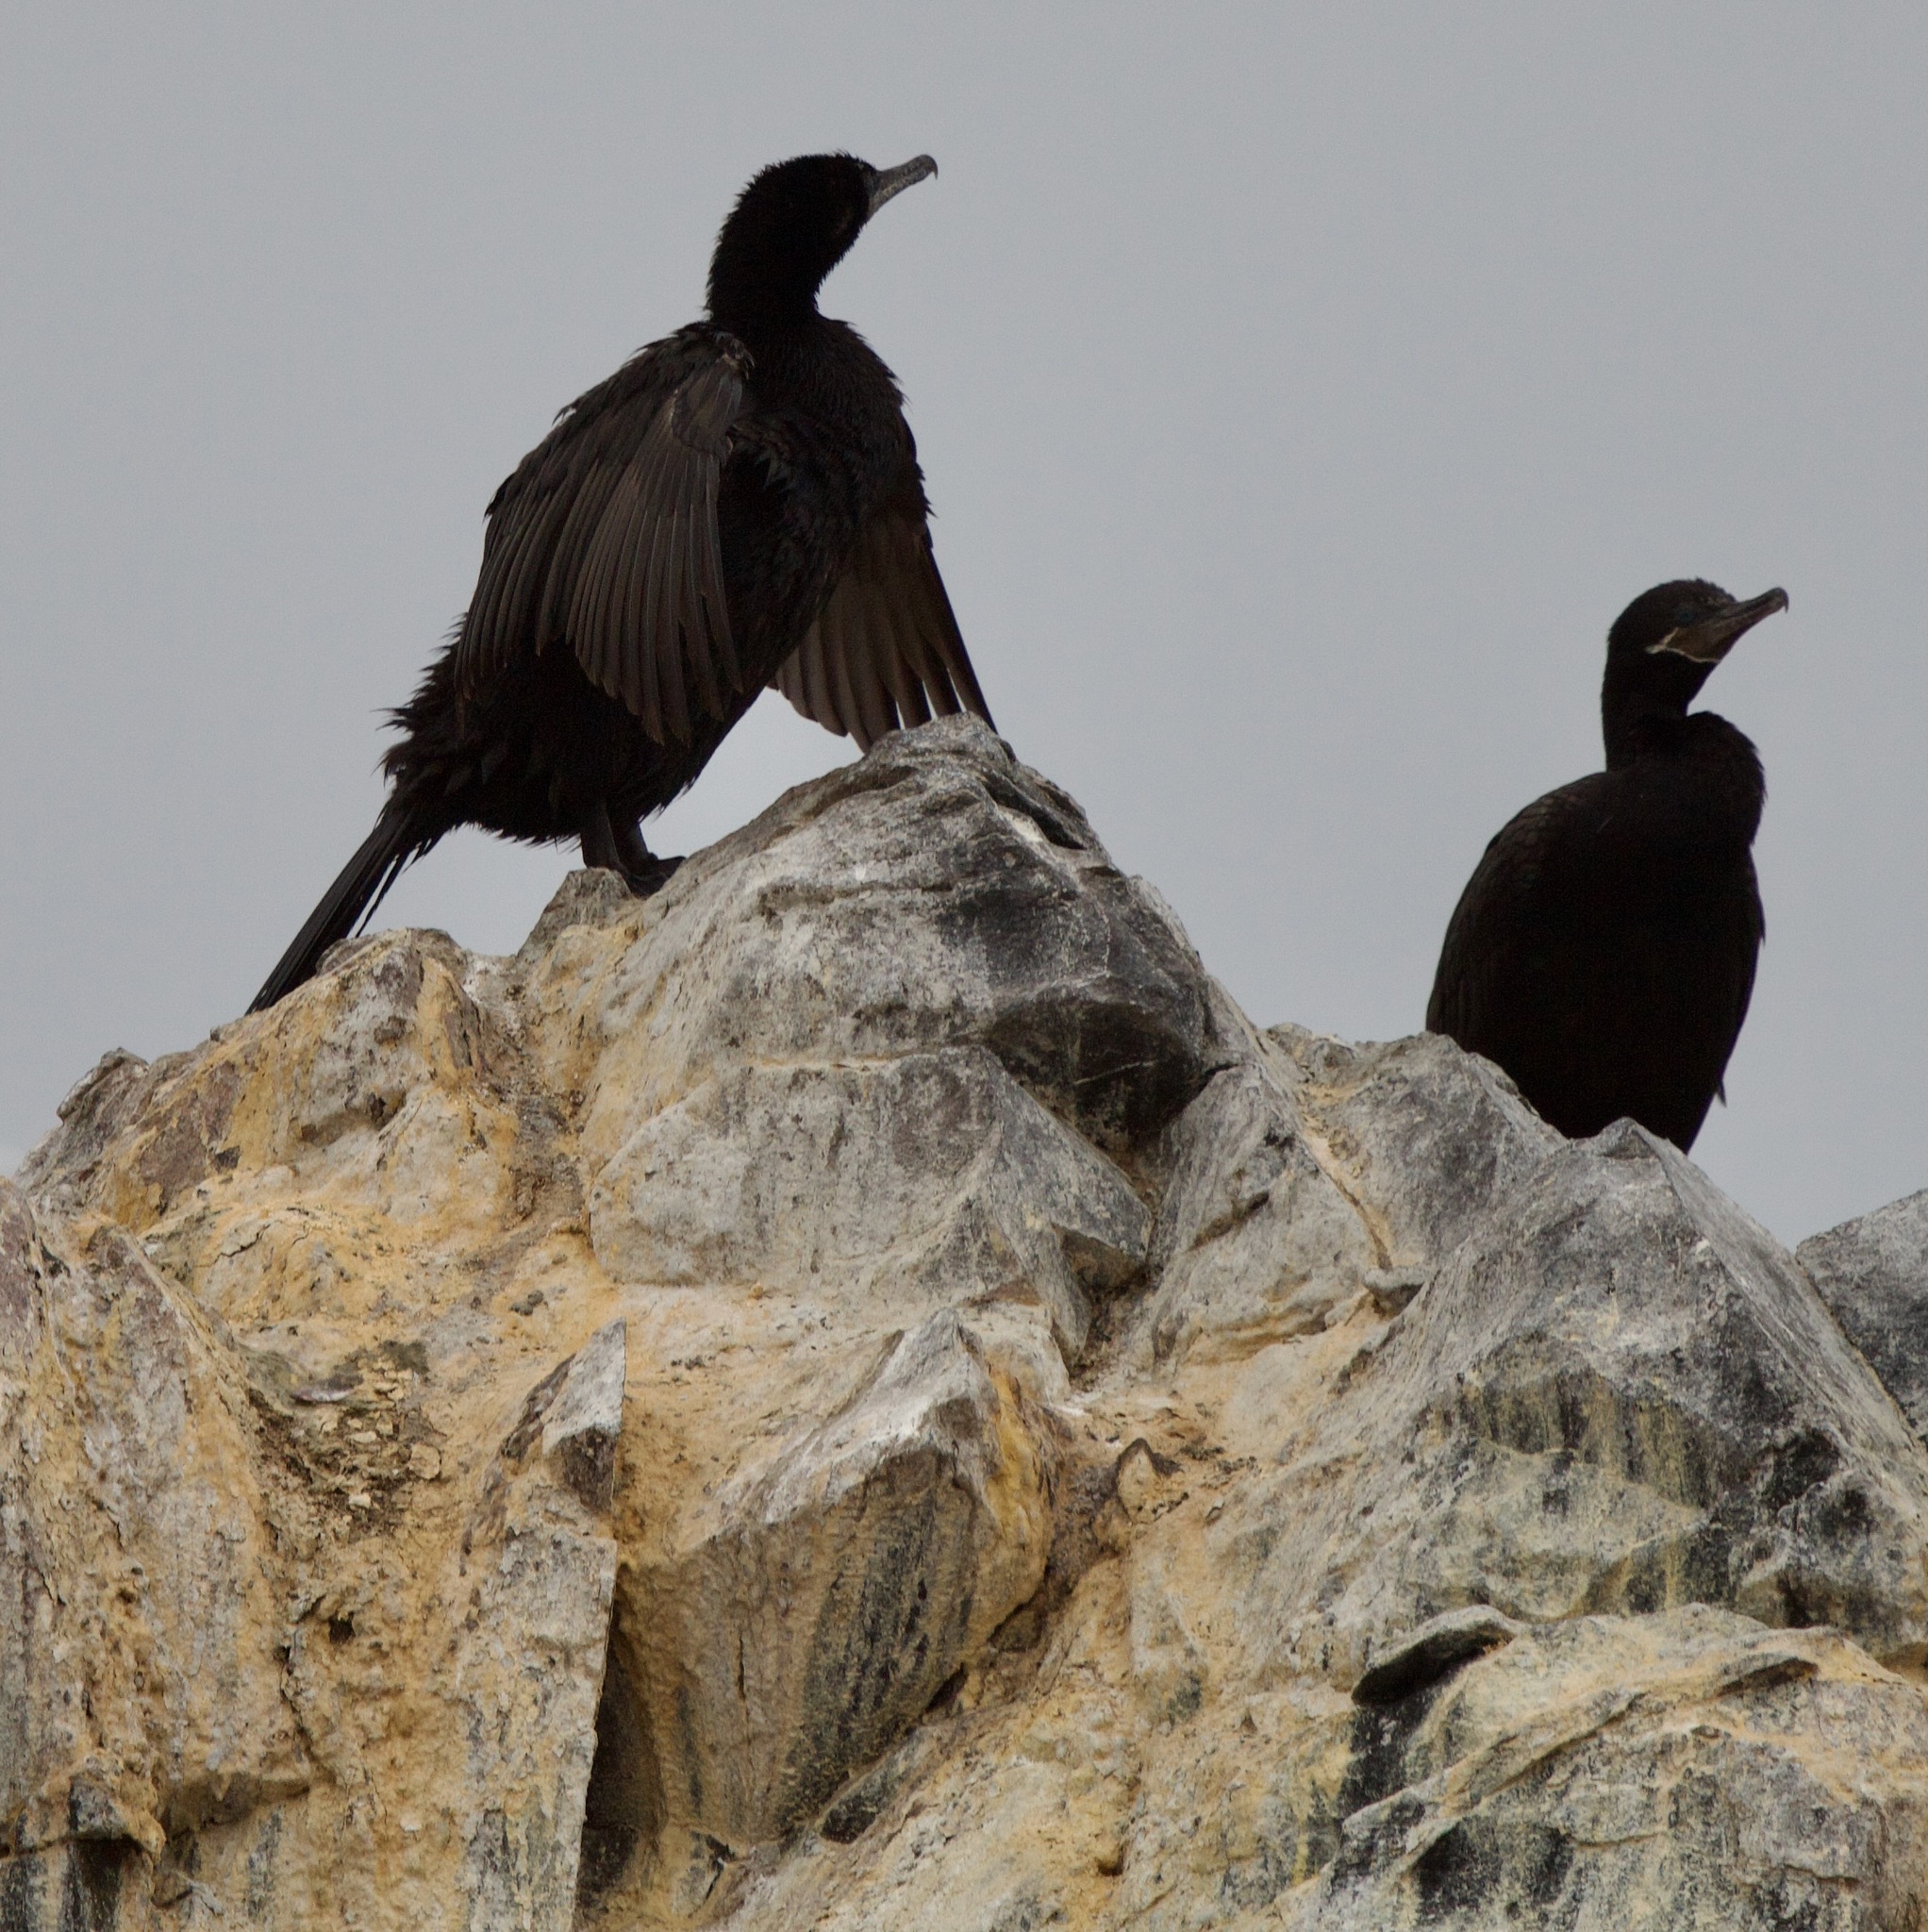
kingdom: Animalia
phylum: Chordata
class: Aves
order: Suliformes
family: Phalacrocoracidae
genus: Phalacrocorax
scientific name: Phalacrocorax brasilianus
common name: Neotropic cormorant
